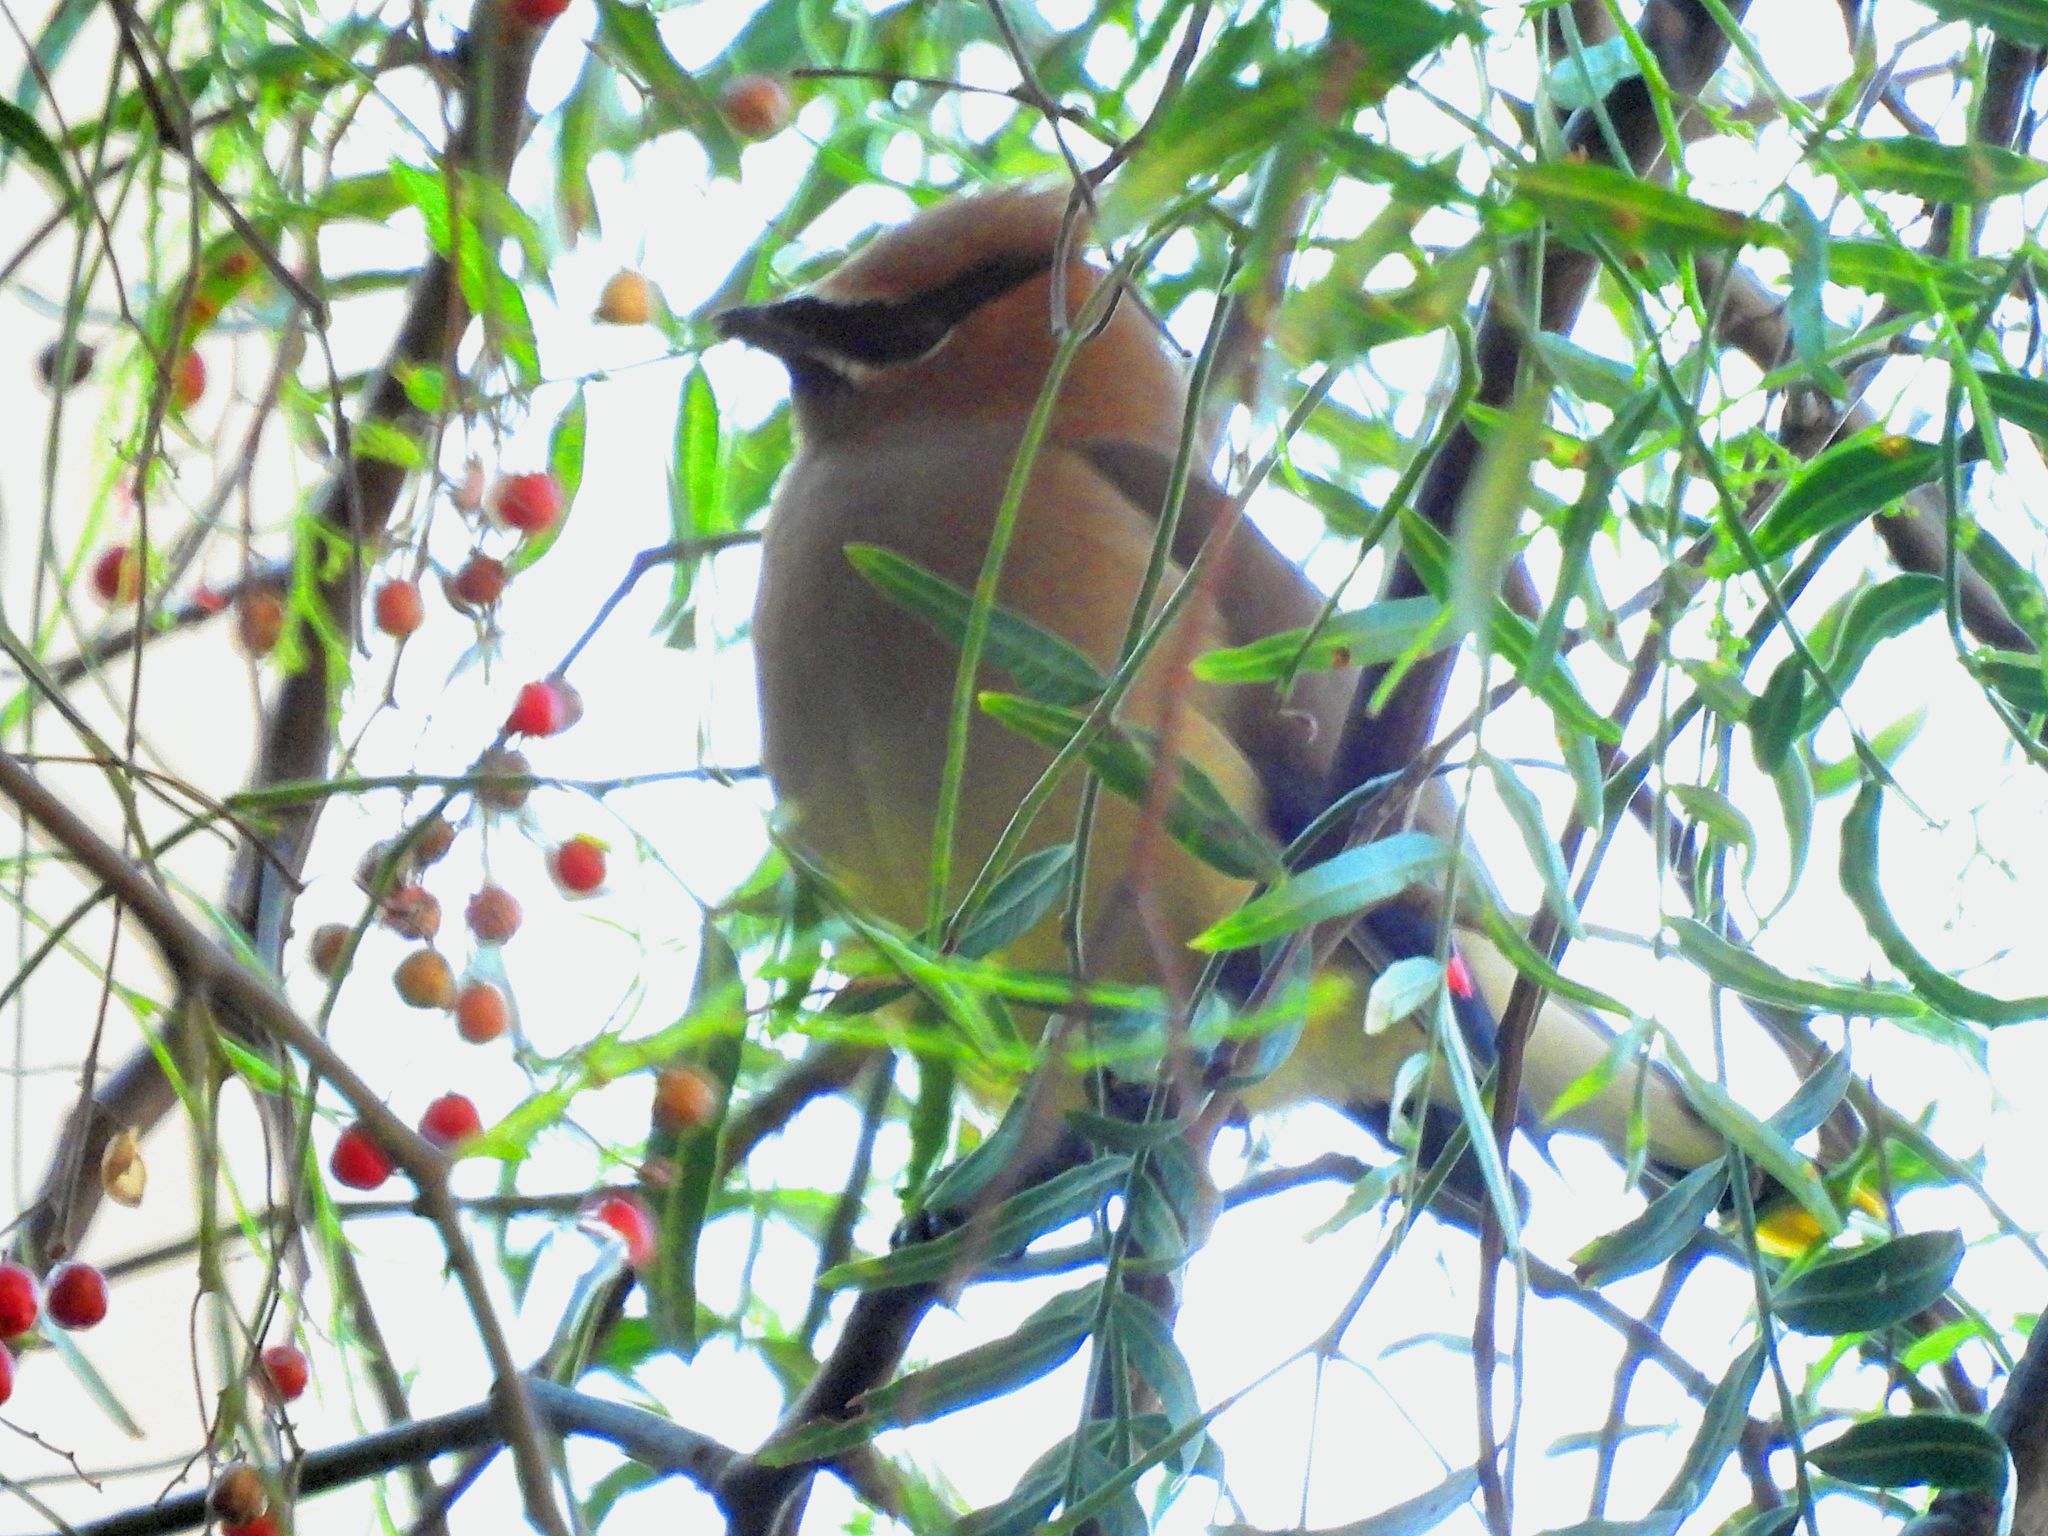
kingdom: Animalia
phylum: Chordata
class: Aves
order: Passeriformes
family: Bombycillidae
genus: Bombycilla
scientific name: Bombycilla cedrorum
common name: Cedar waxwing
